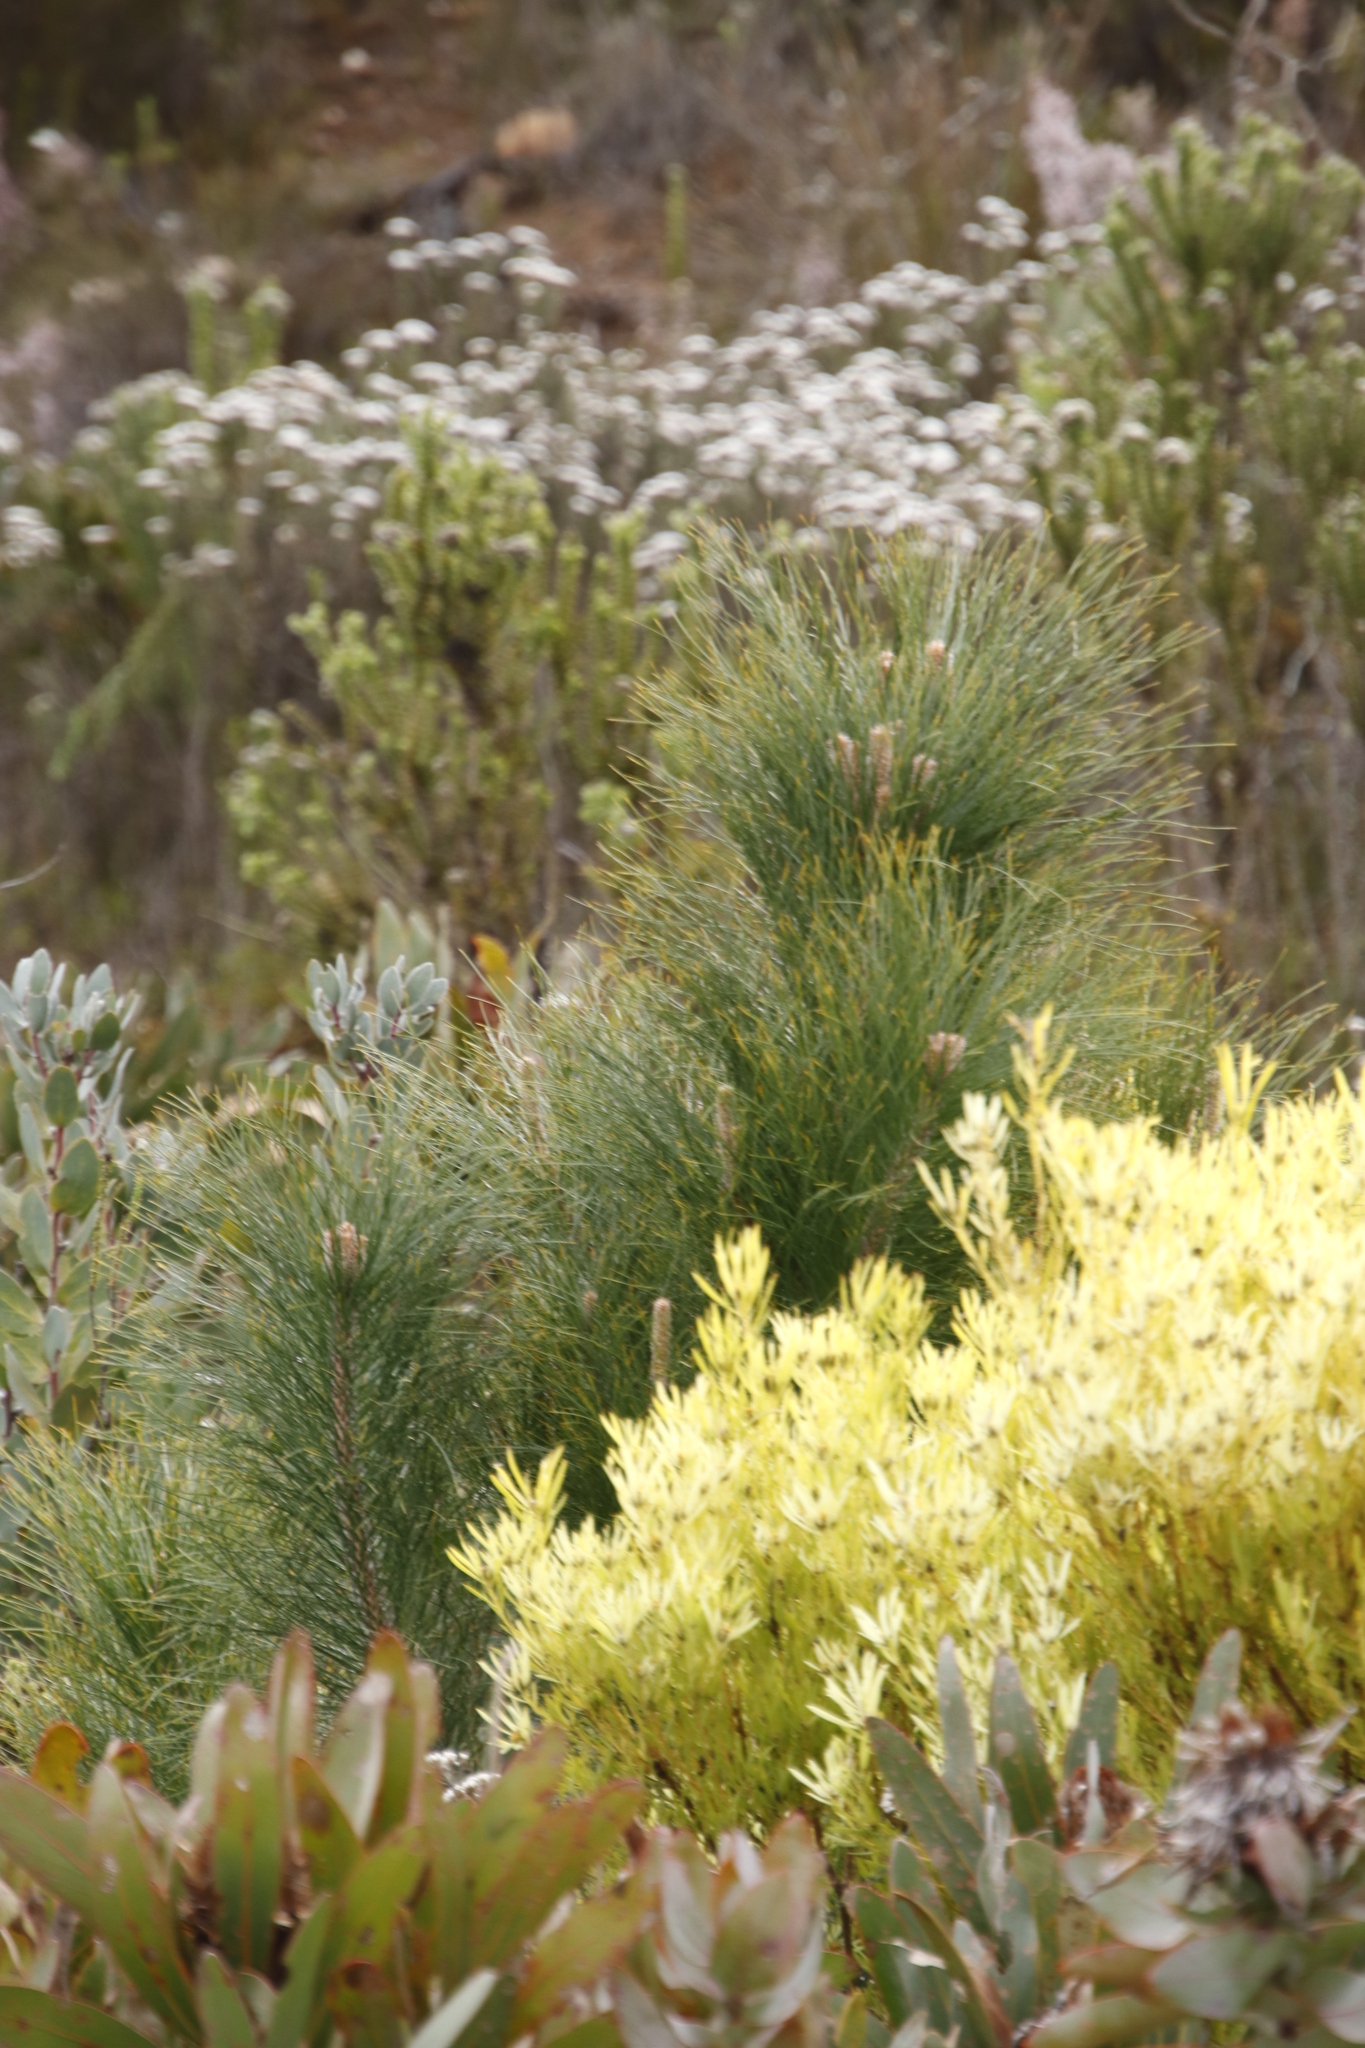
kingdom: Plantae
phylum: Tracheophyta
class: Pinopsida
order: Pinales
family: Pinaceae
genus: Pinus
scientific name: Pinus coulteri
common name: Coulter pine
